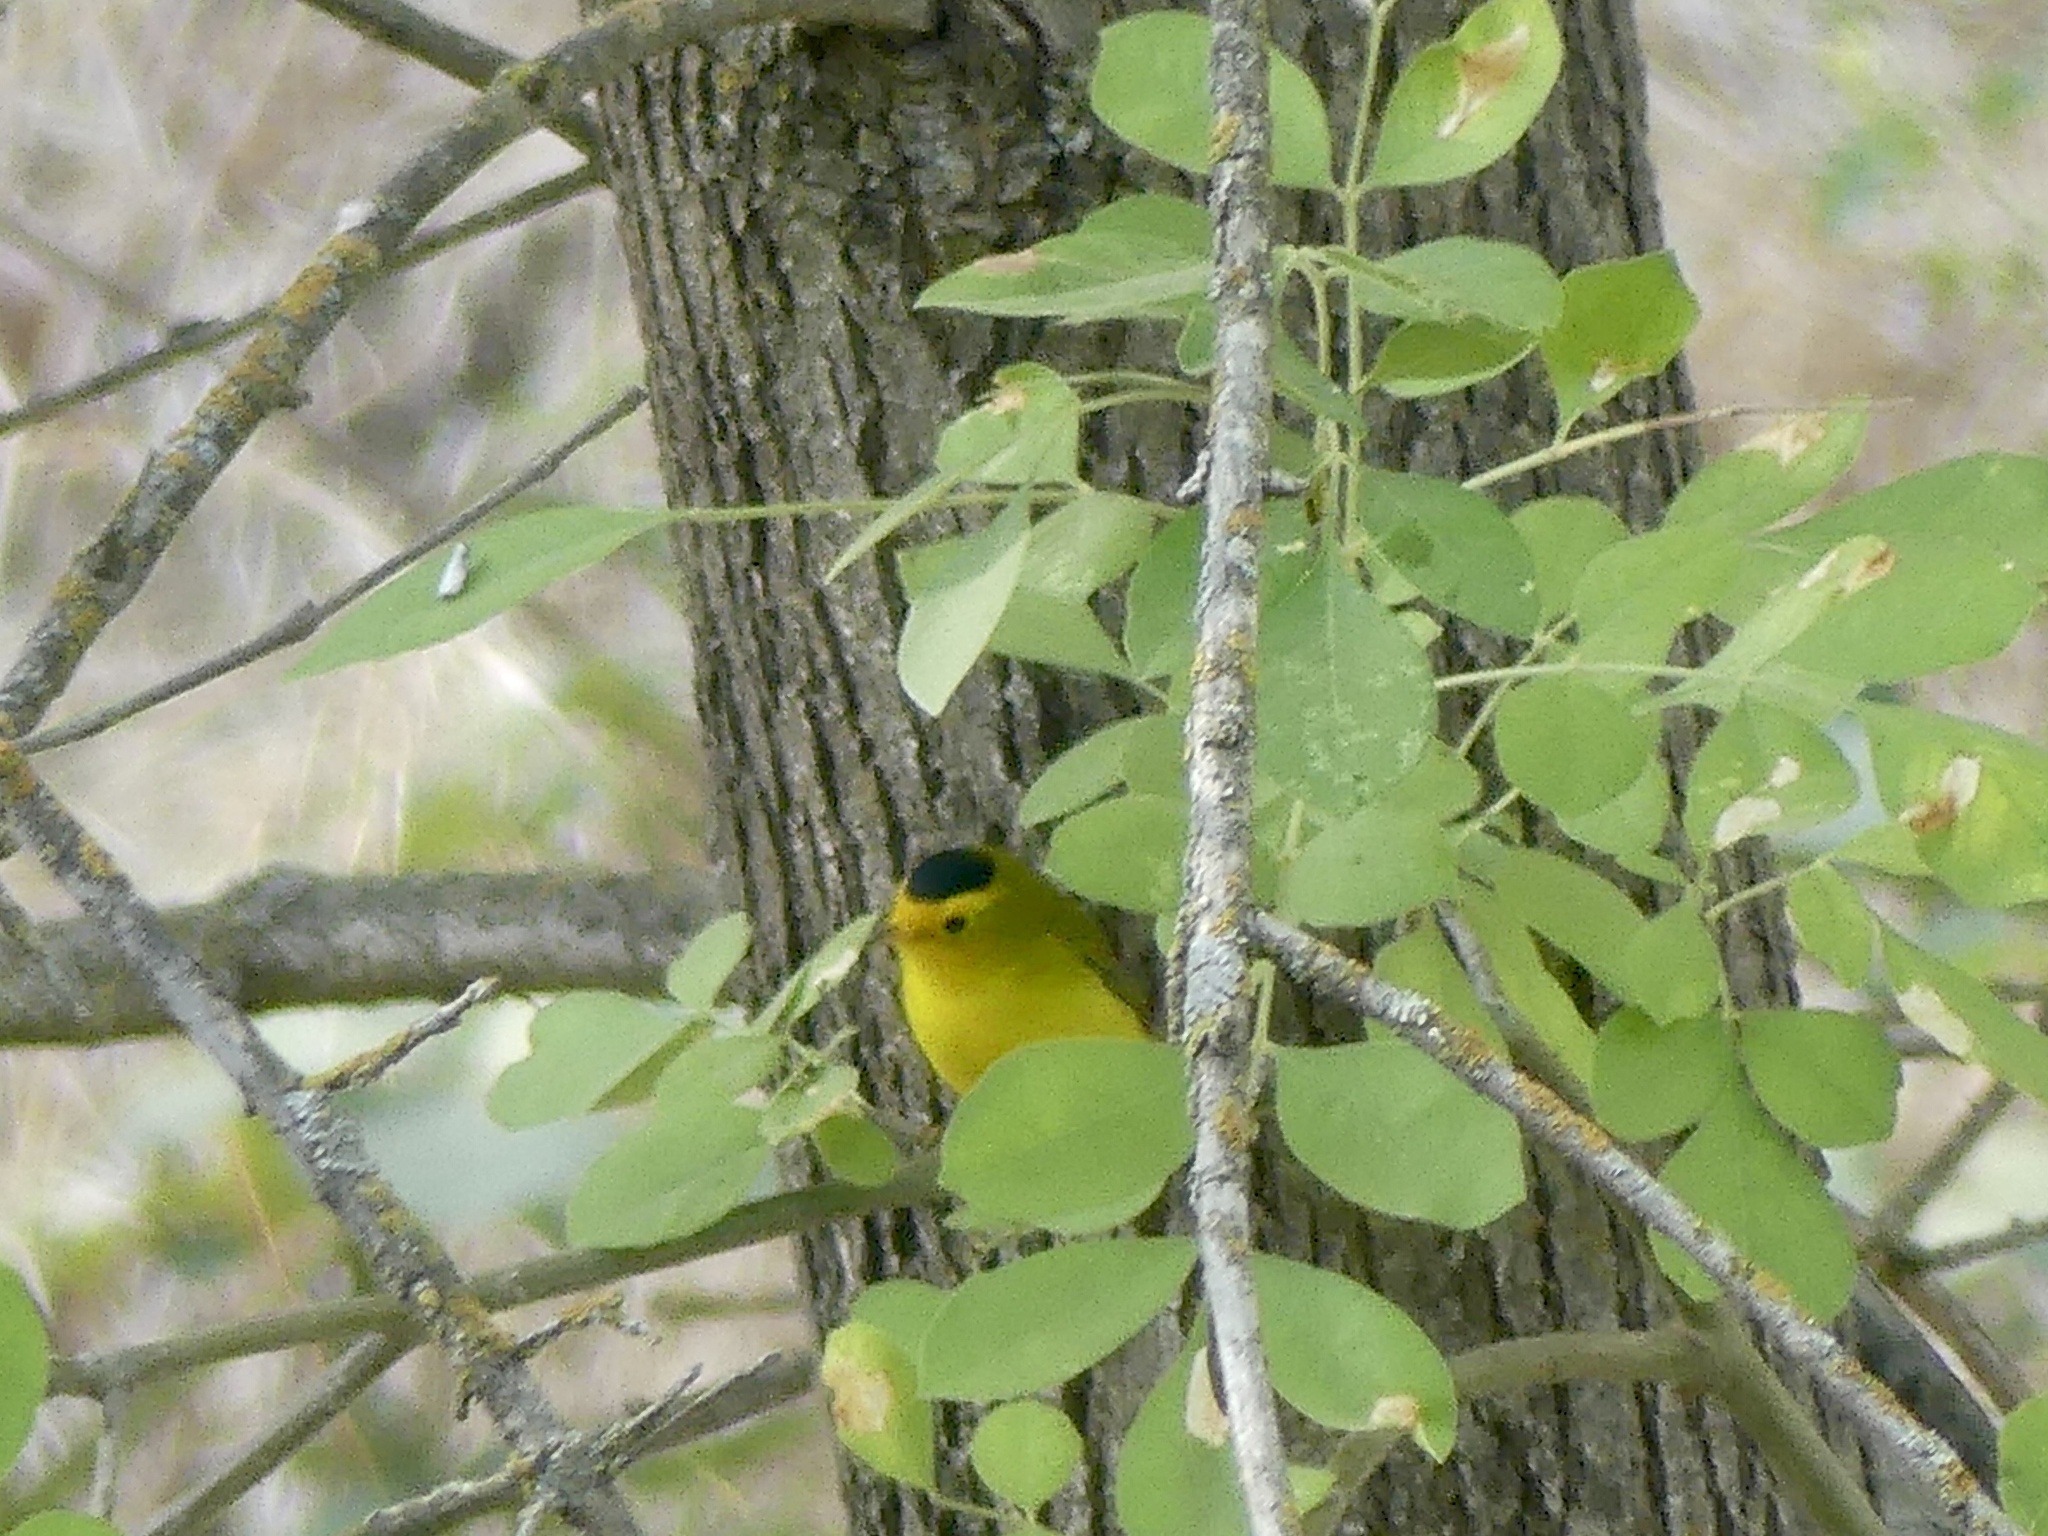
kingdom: Animalia
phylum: Chordata
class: Aves
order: Passeriformes
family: Parulidae
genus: Cardellina
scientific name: Cardellina pusilla
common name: Wilson's warbler
